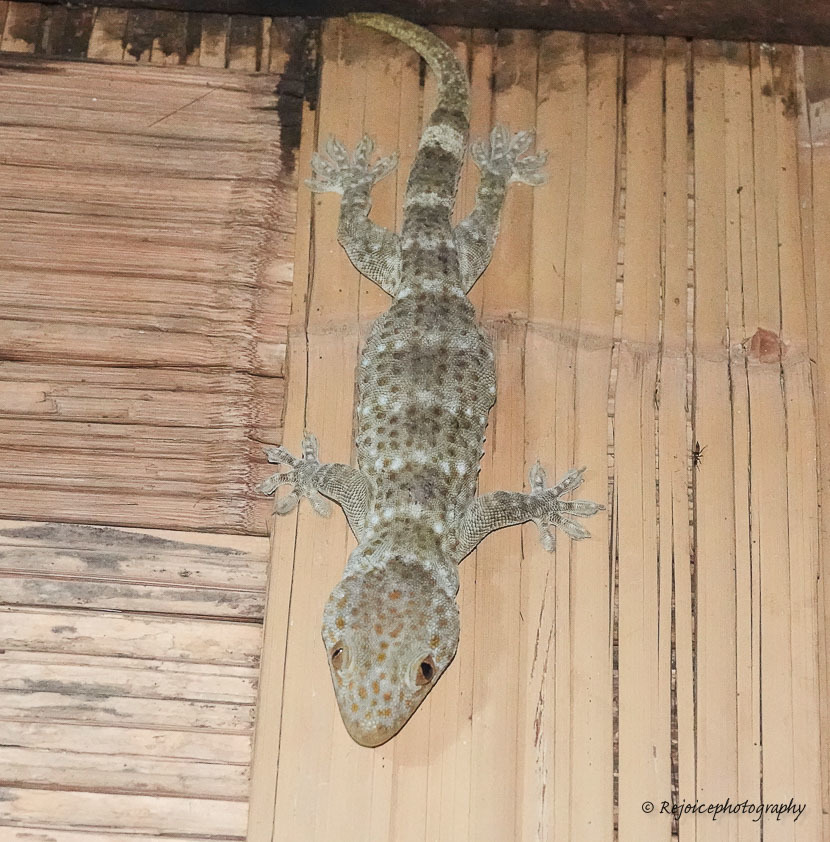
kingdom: Animalia
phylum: Chordata
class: Squamata
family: Gekkonidae
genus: Gekko
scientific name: Gekko gecko
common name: Tokay gecko
